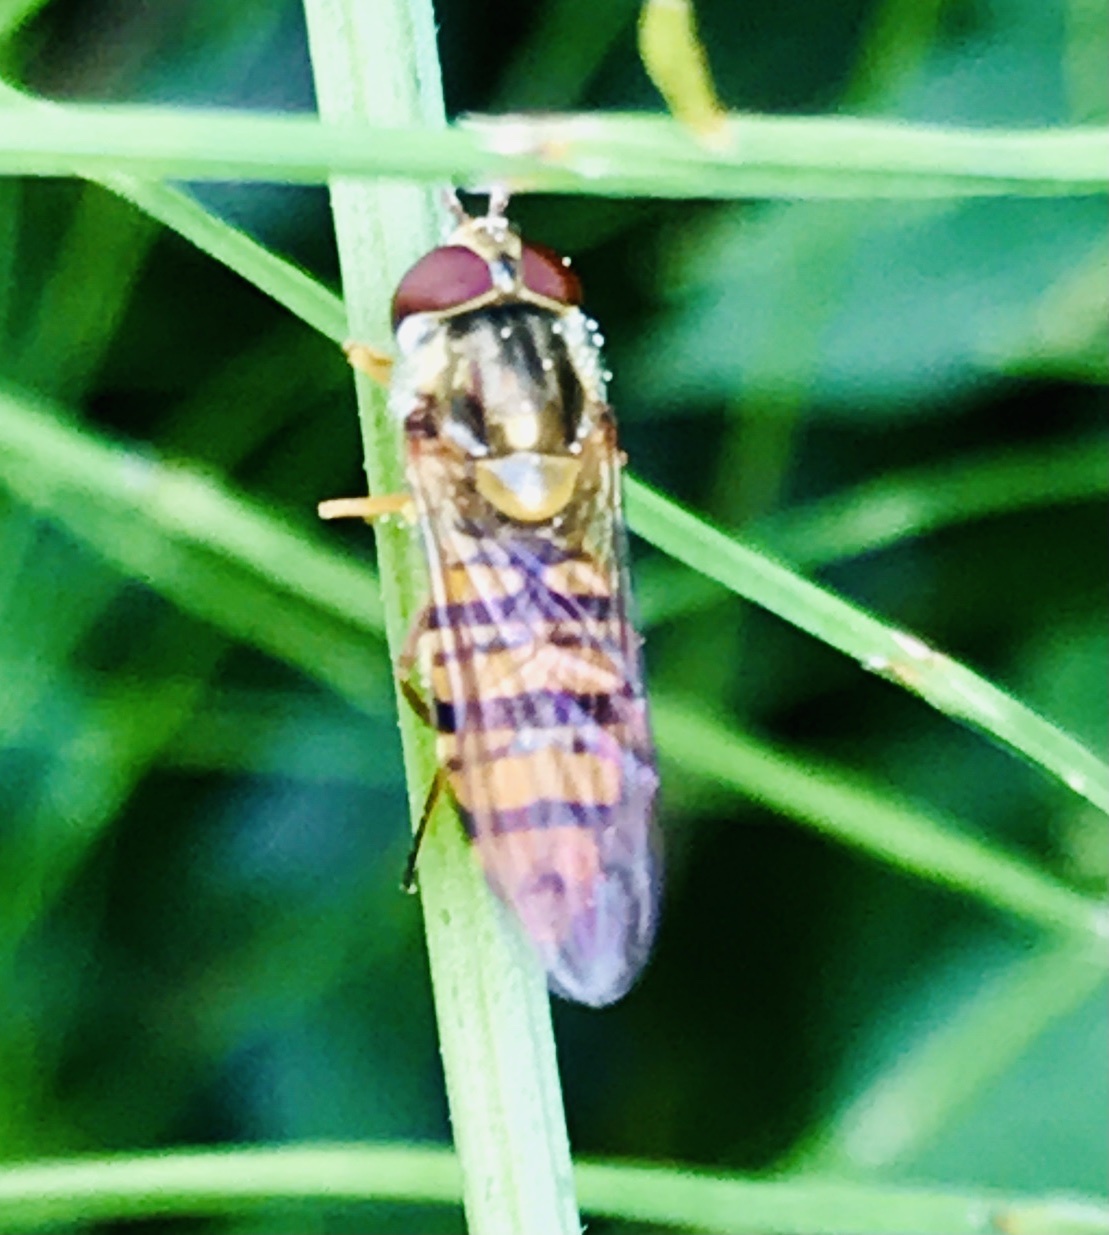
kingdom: Animalia
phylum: Arthropoda
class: Insecta
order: Diptera
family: Syrphidae
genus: Episyrphus
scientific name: Episyrphus balteatus
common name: Marmalade hoverfly
